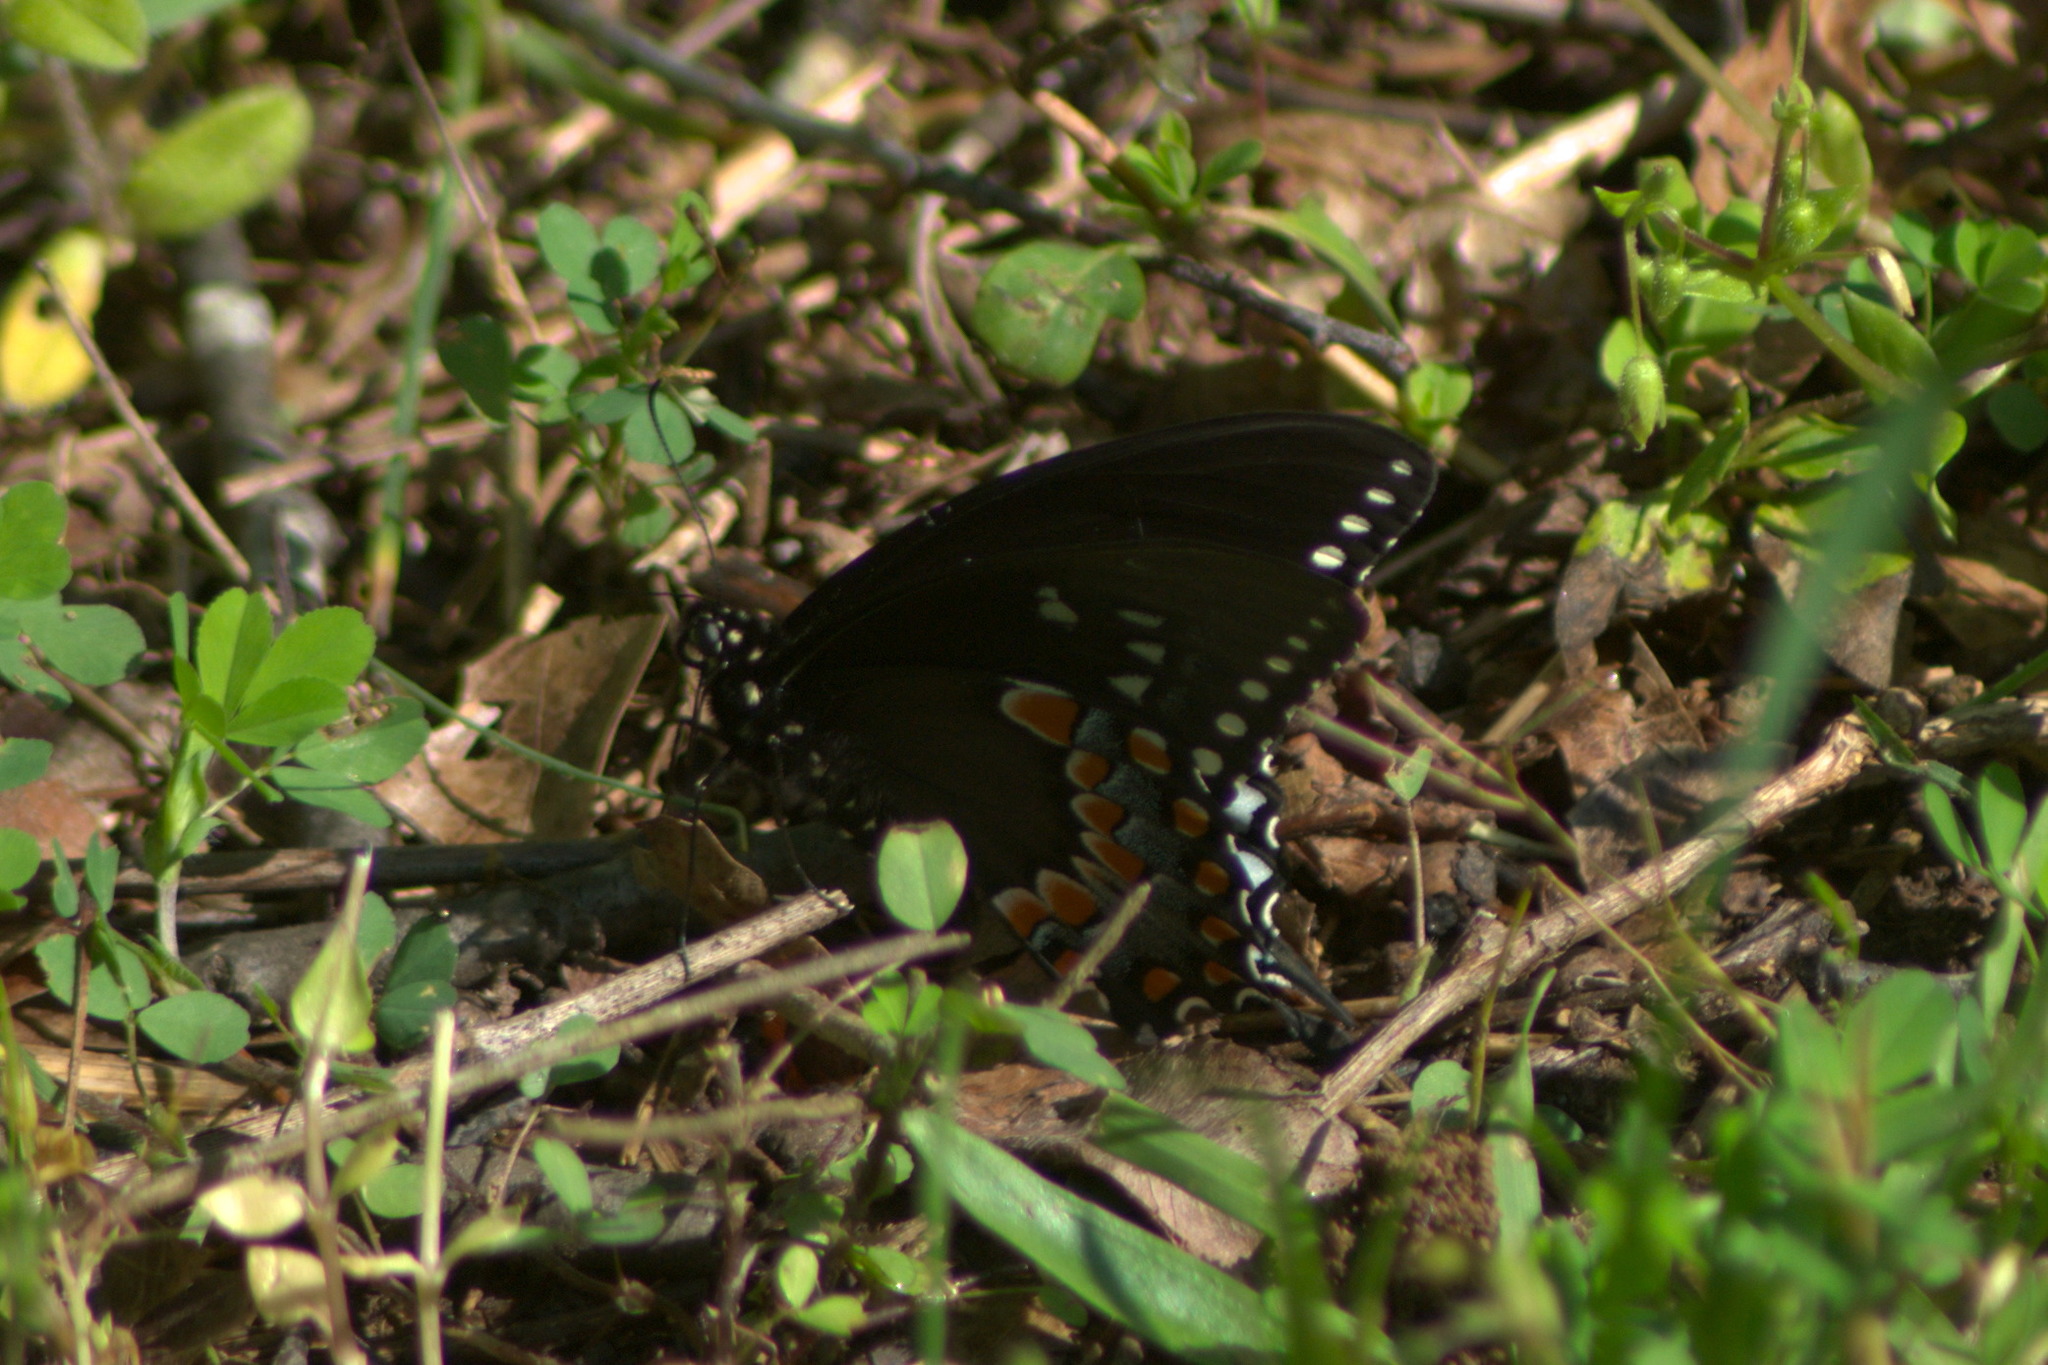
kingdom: Animalia
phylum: Arthropoda
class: Insecta
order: Lepidoptera
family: Papilionidae
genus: Papilio
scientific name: Papilio troilus
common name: Spicebush swallowtail
